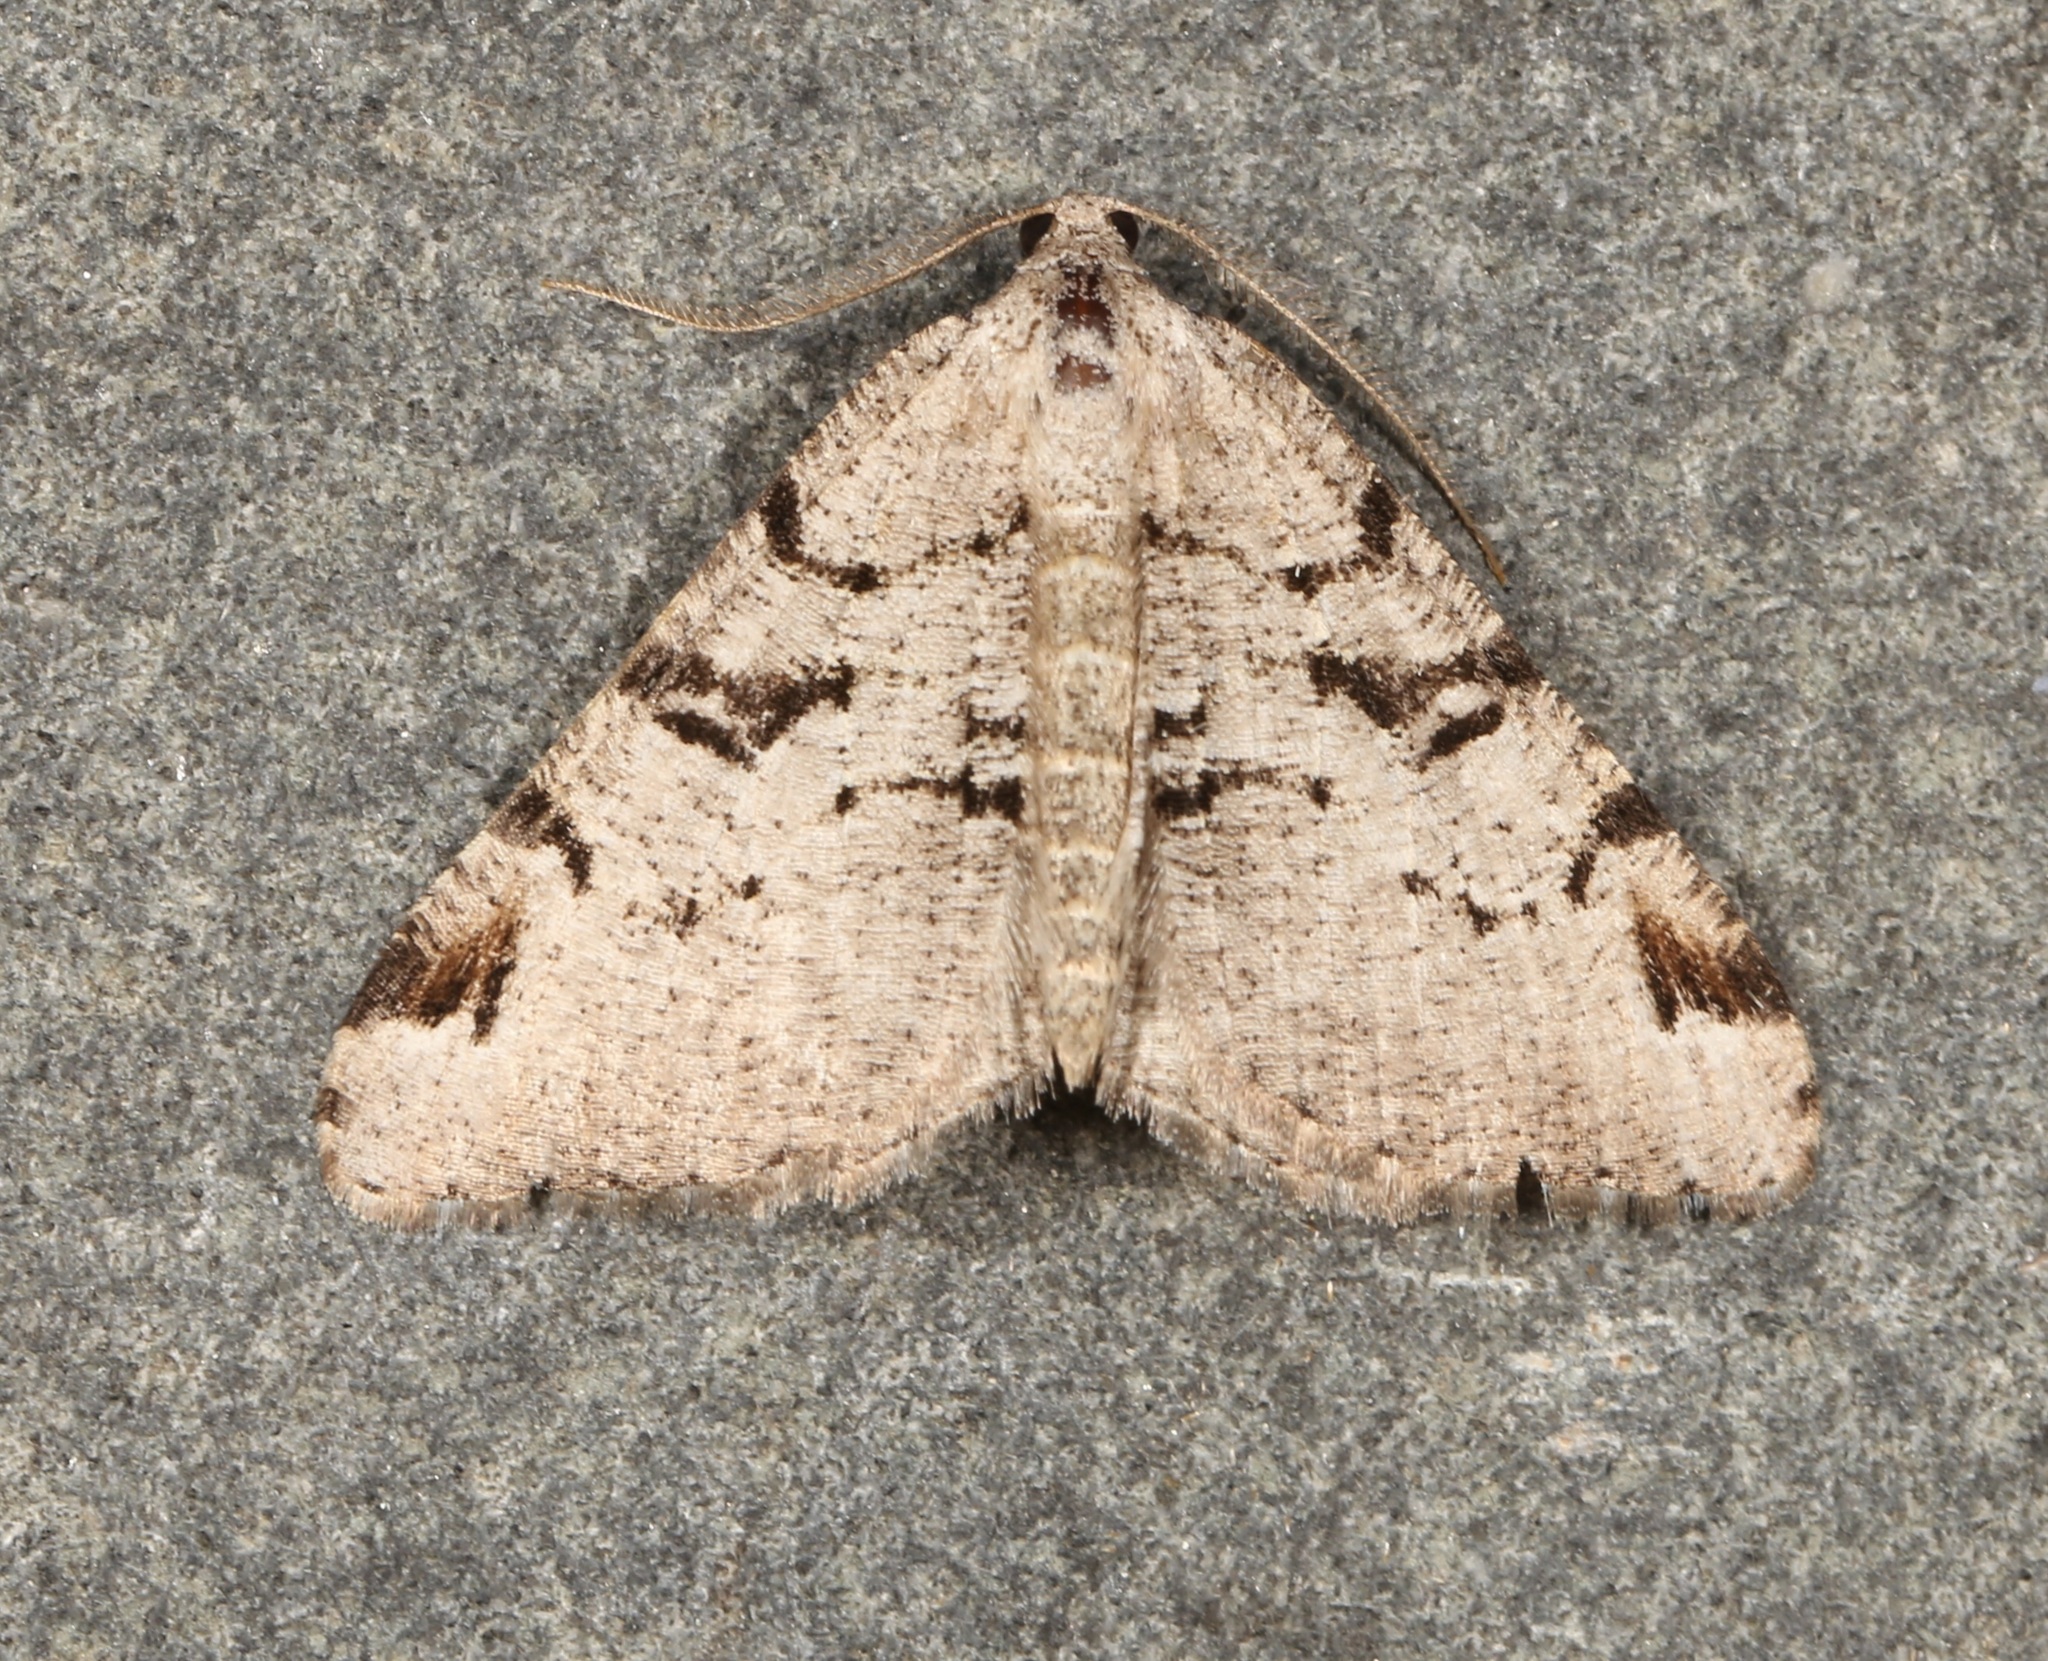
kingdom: Animalia
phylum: Arthropoda
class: Insecta
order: Lepidoptera
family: Geometridae
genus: Macaria
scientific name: Macaria bitactata
